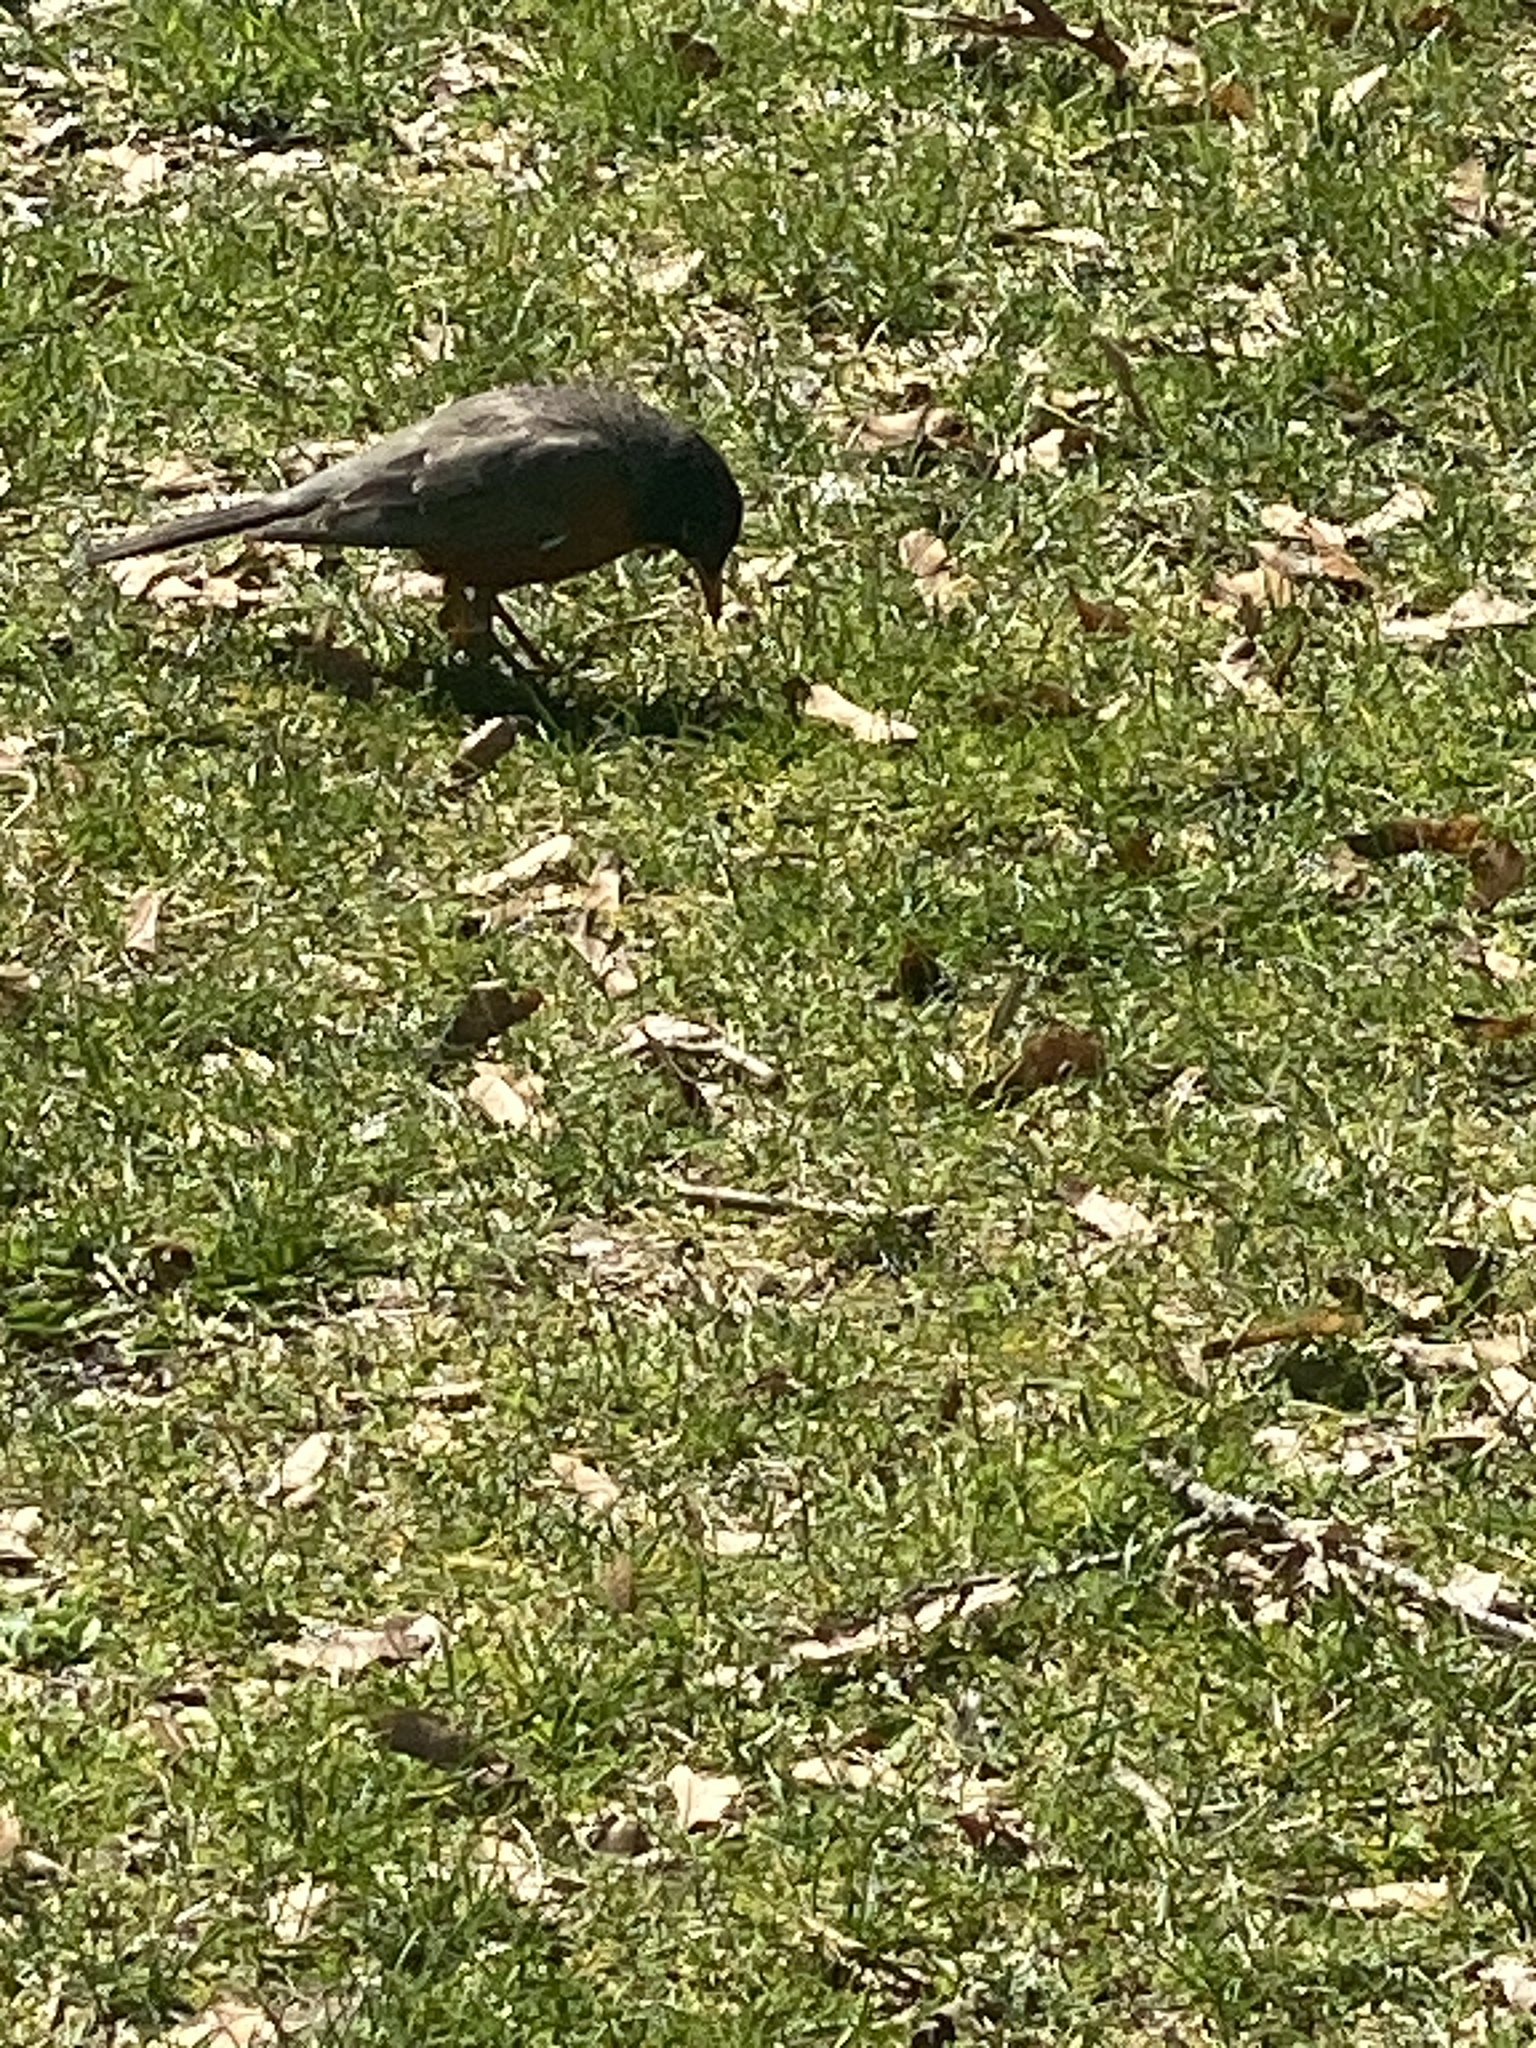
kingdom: Animalia
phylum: Chordata
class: Aves
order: Passeriformes
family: Turdidae
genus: Turdus
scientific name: Turdus migratorius
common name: American robin
